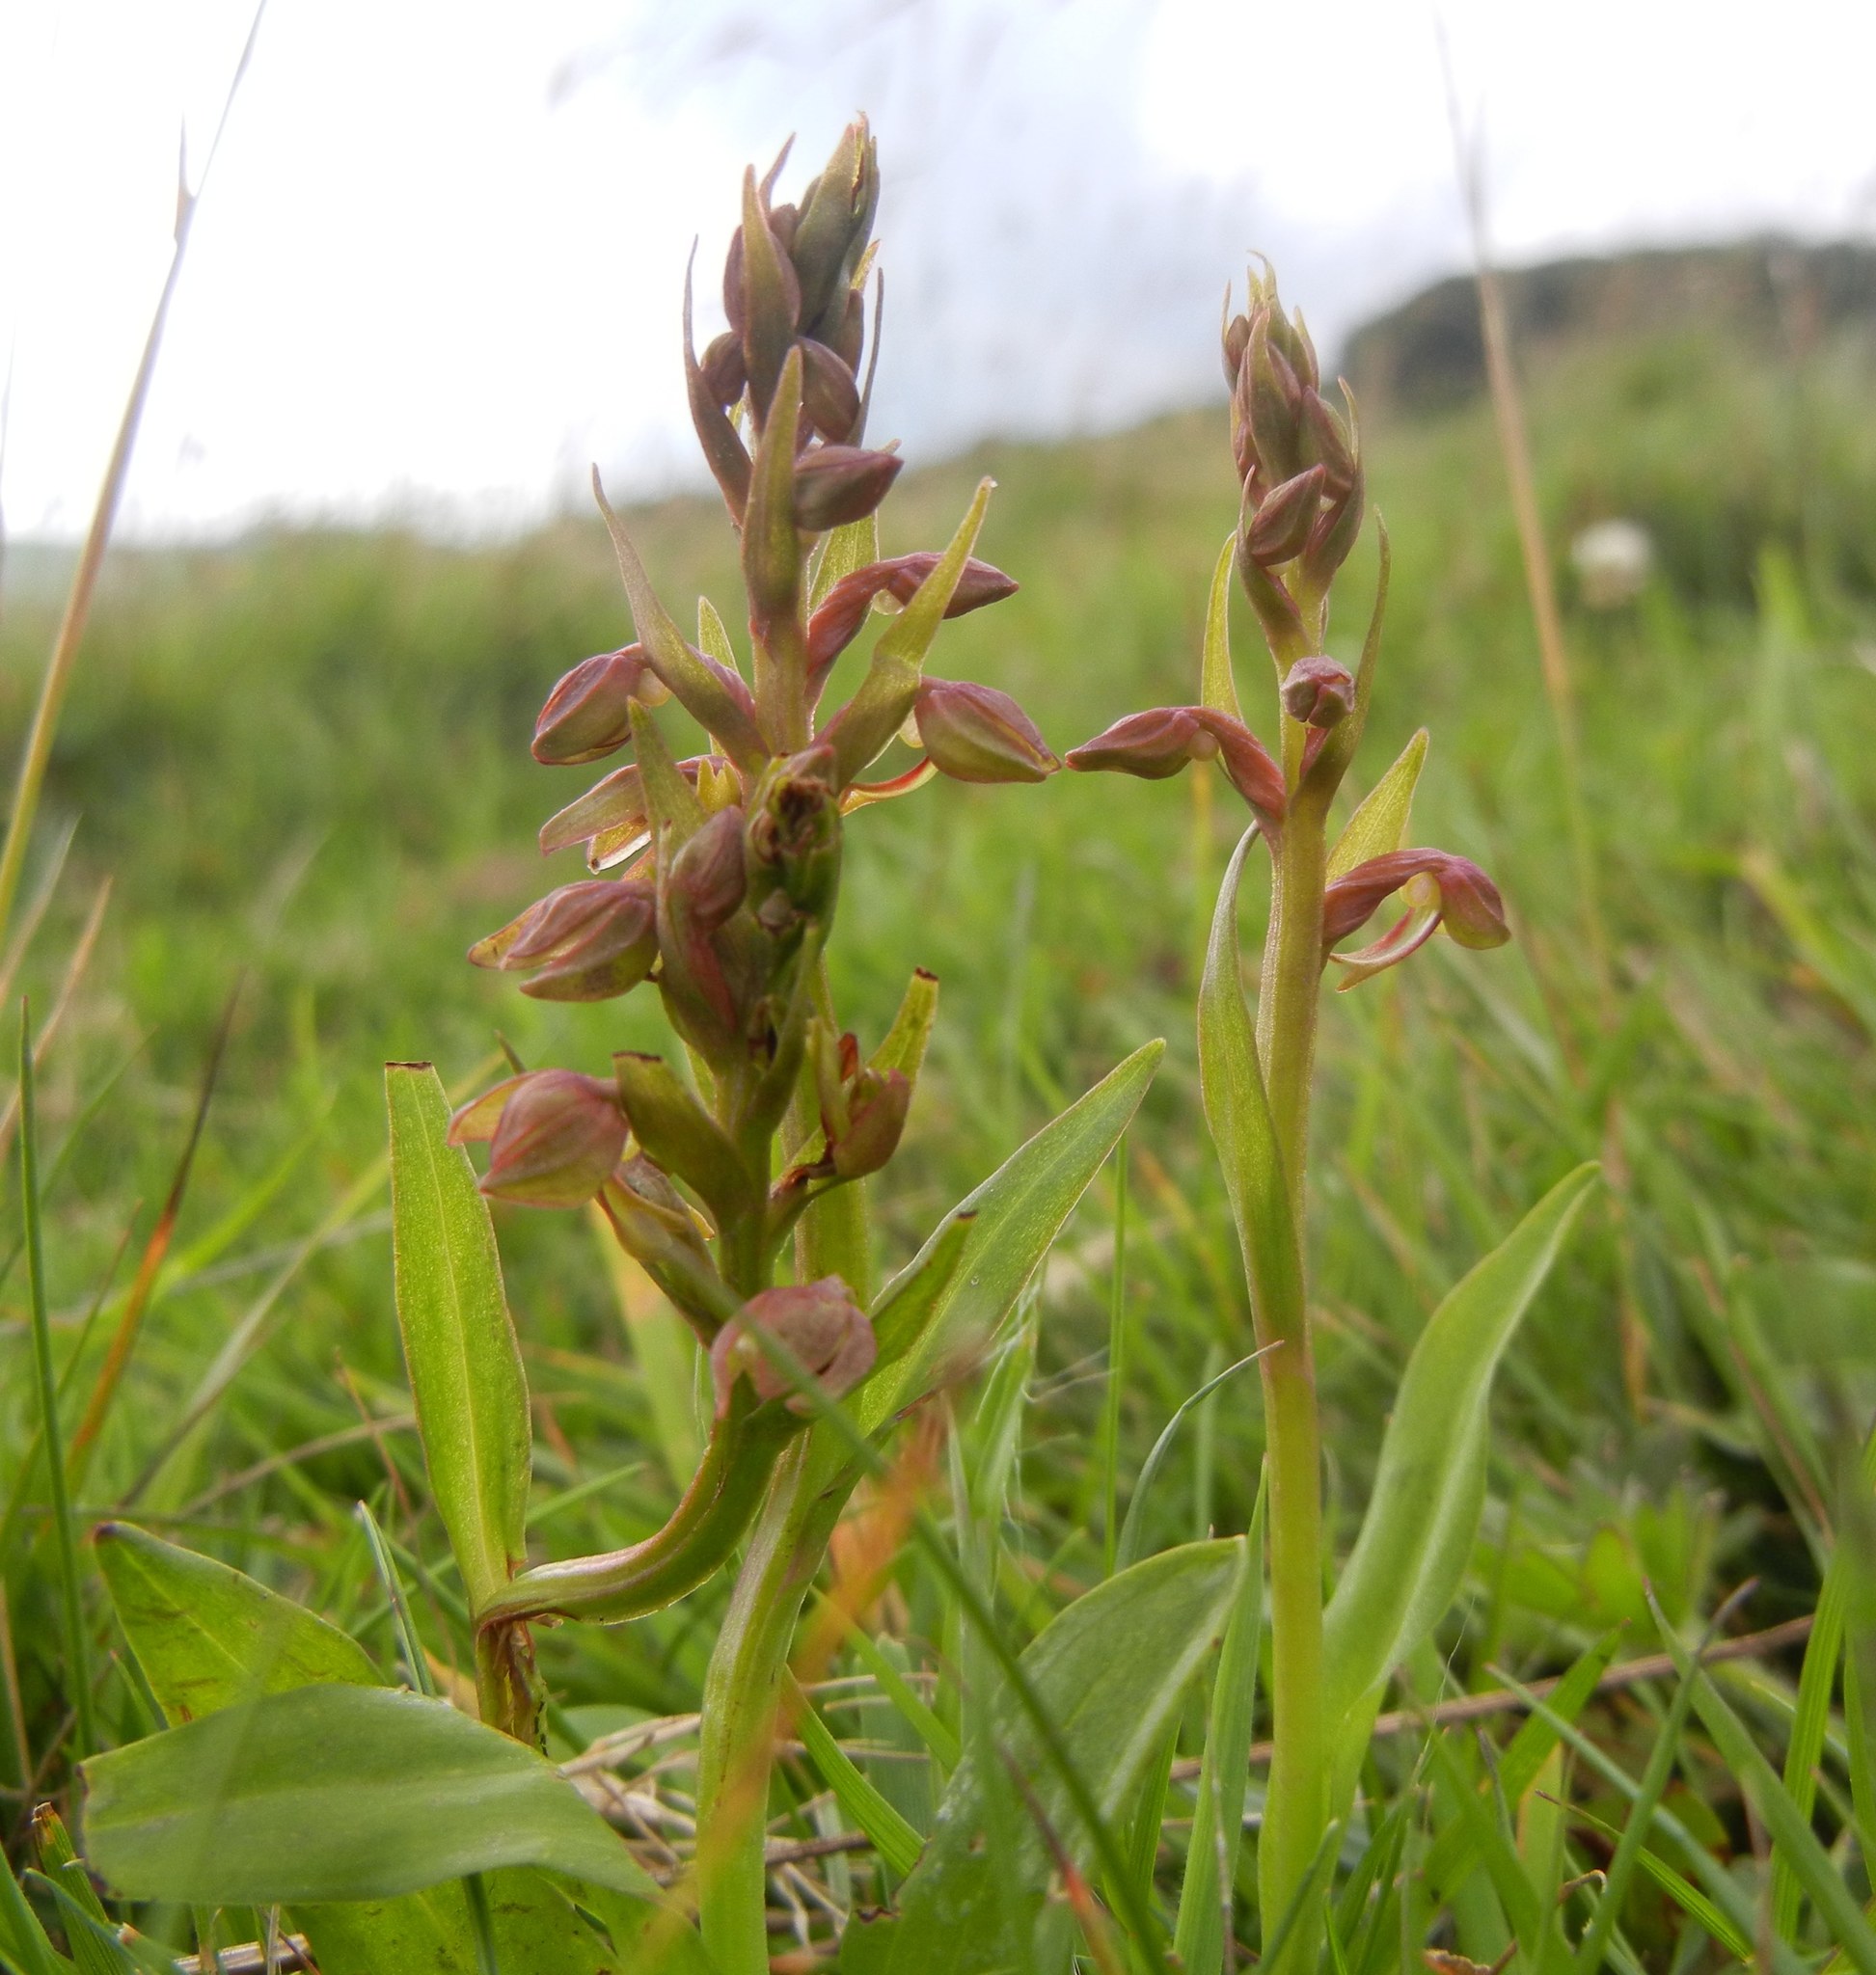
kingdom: Plantae
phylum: Tracheophyta
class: Liliopsida
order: Asparagales
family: Orchidaceae
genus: Dactylorhiza
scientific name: Dactylorhiza viridis
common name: Longbract frog orchid
